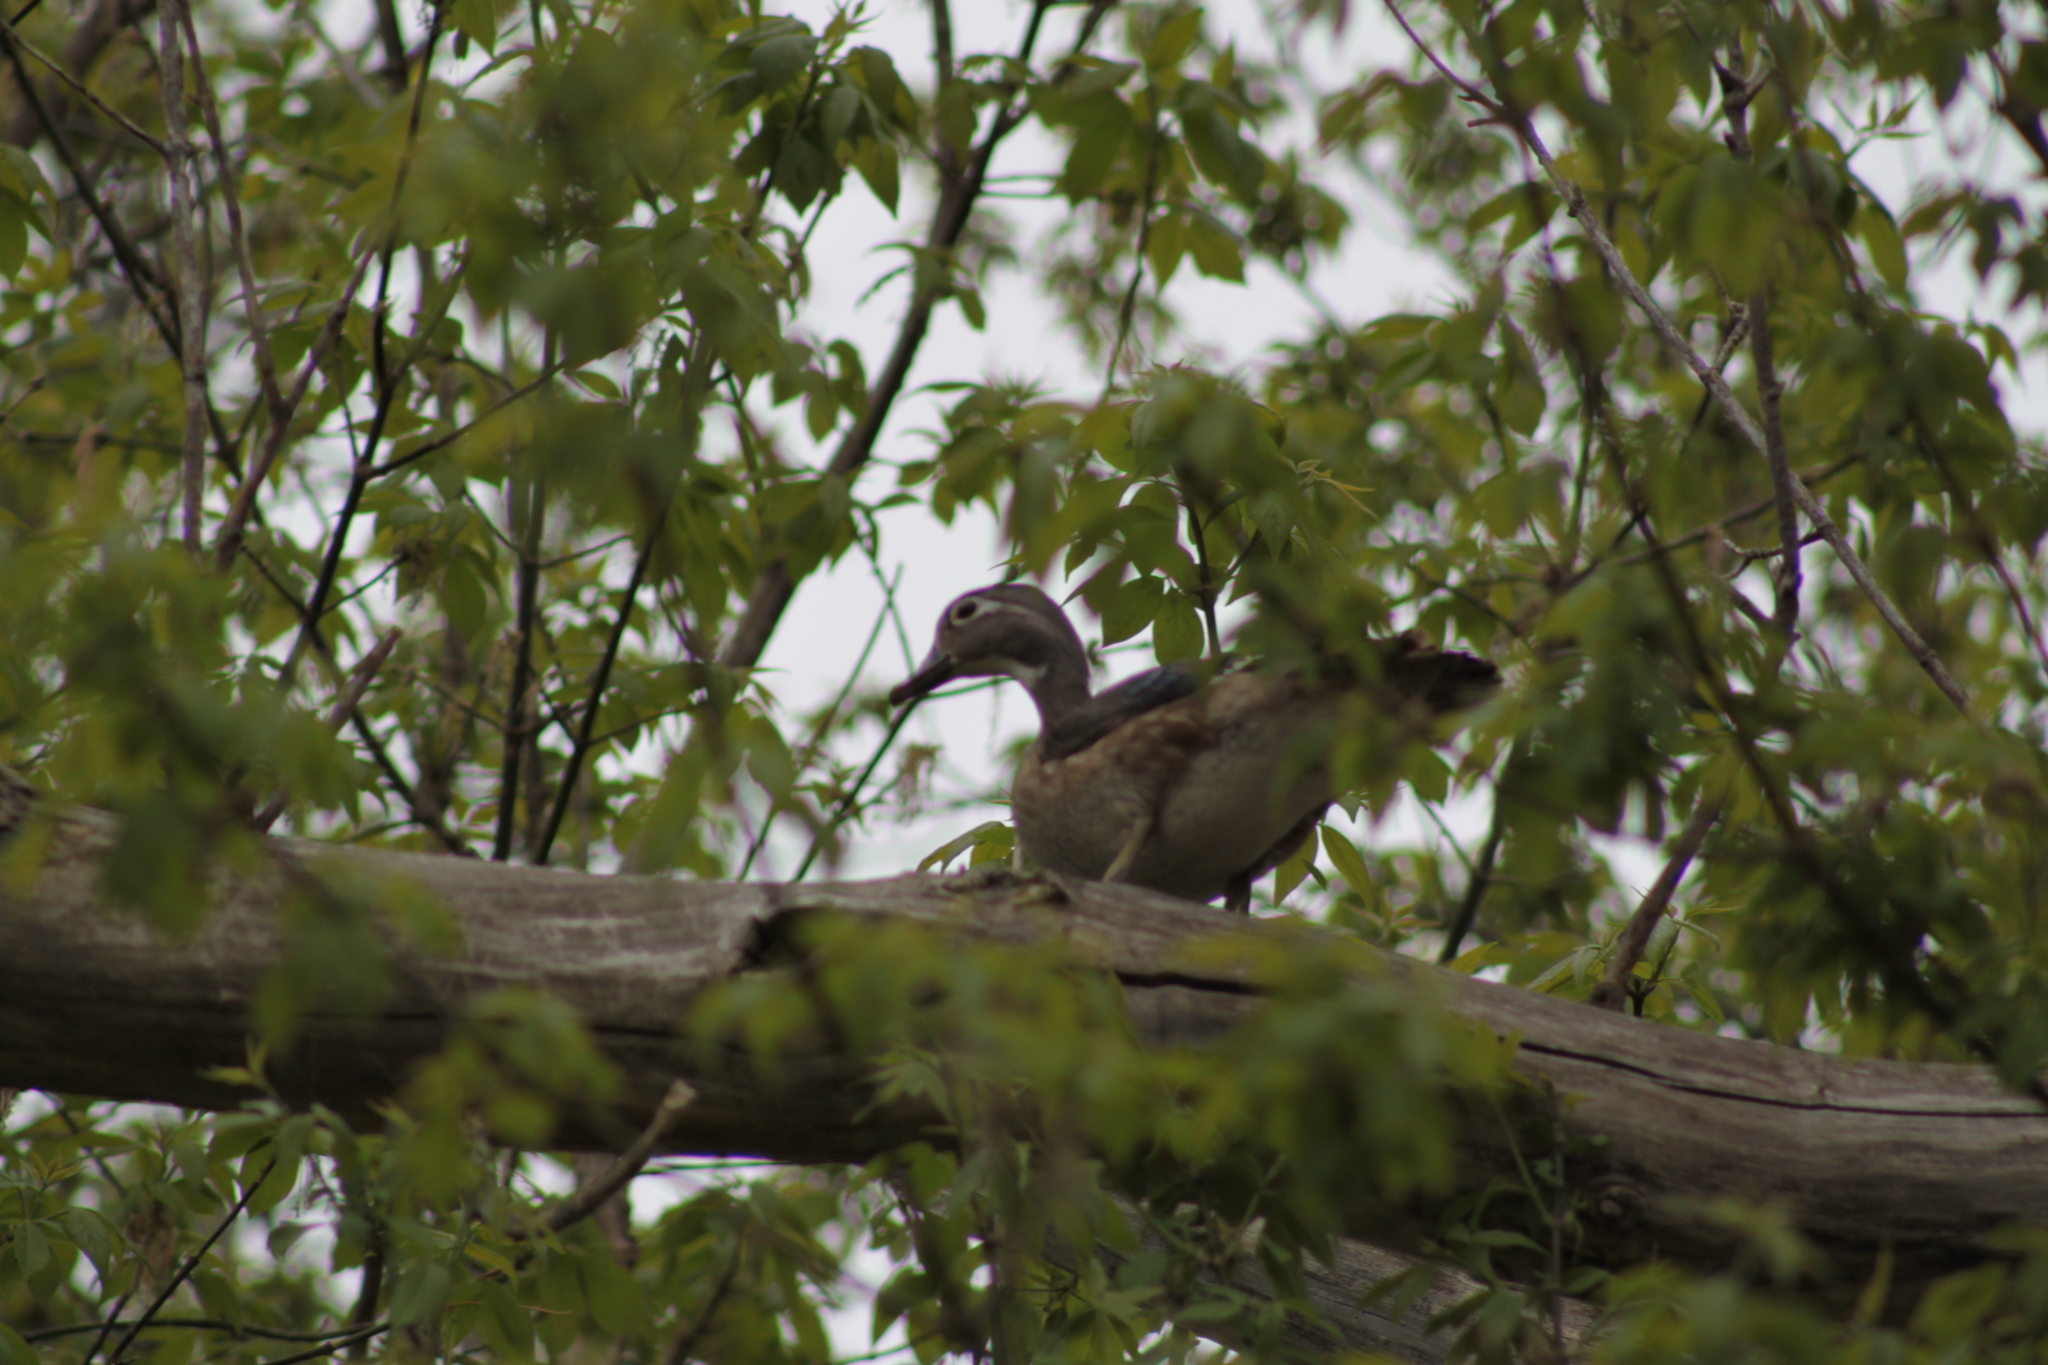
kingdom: Animalia
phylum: Chordata
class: Aves
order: Anseriformes
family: Anatidae
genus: Aix
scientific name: Aix sponsa
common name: Wood duck
